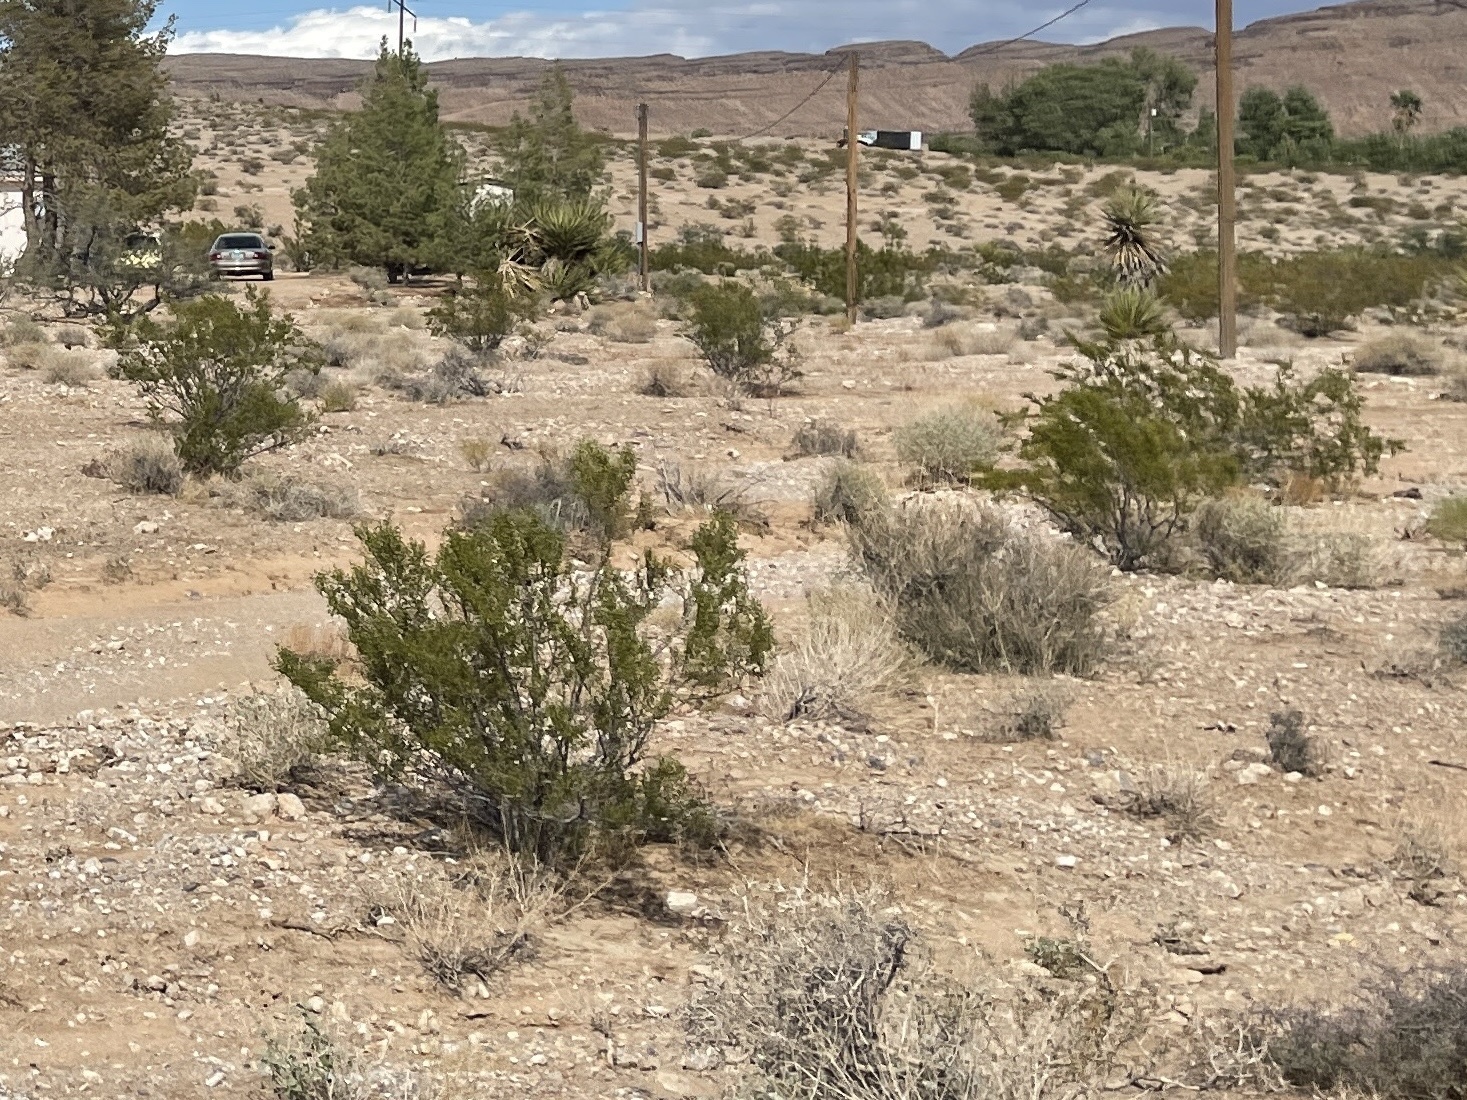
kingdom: Plantae
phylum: Tracheophyta
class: Magnoliopsida
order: Zygophyllales
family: Zygophyllaceae
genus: Larrea
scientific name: Larrea tridentata
